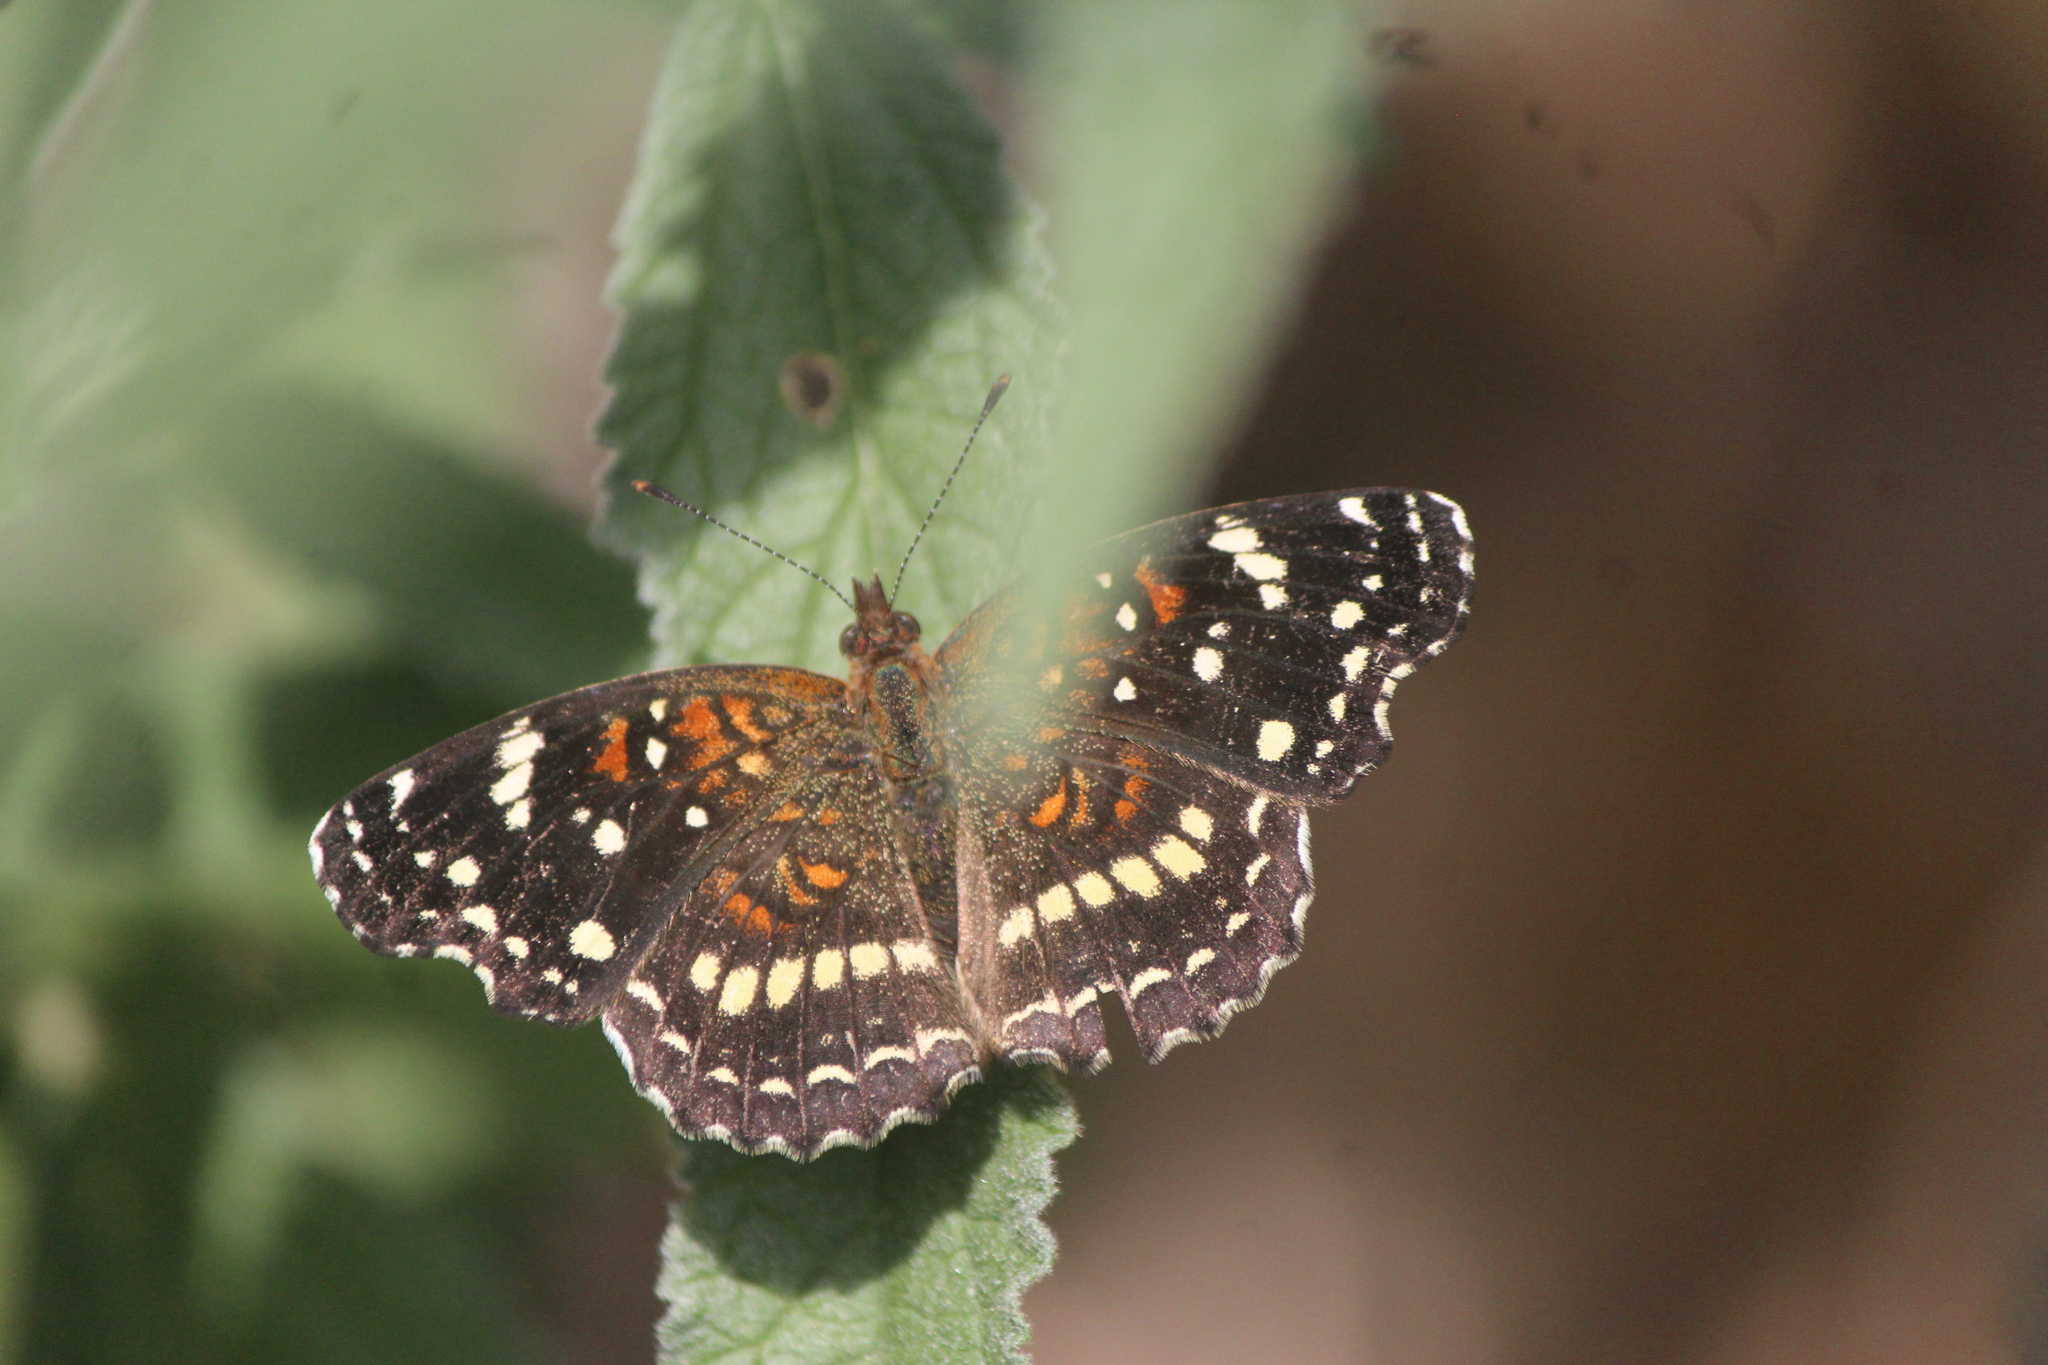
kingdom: Animalia
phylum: Arthropoda
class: Insecta
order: Lepidoptera
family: Nymphalidae
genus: Anthanassa
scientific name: Anthanassa texana
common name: Texan crescent
